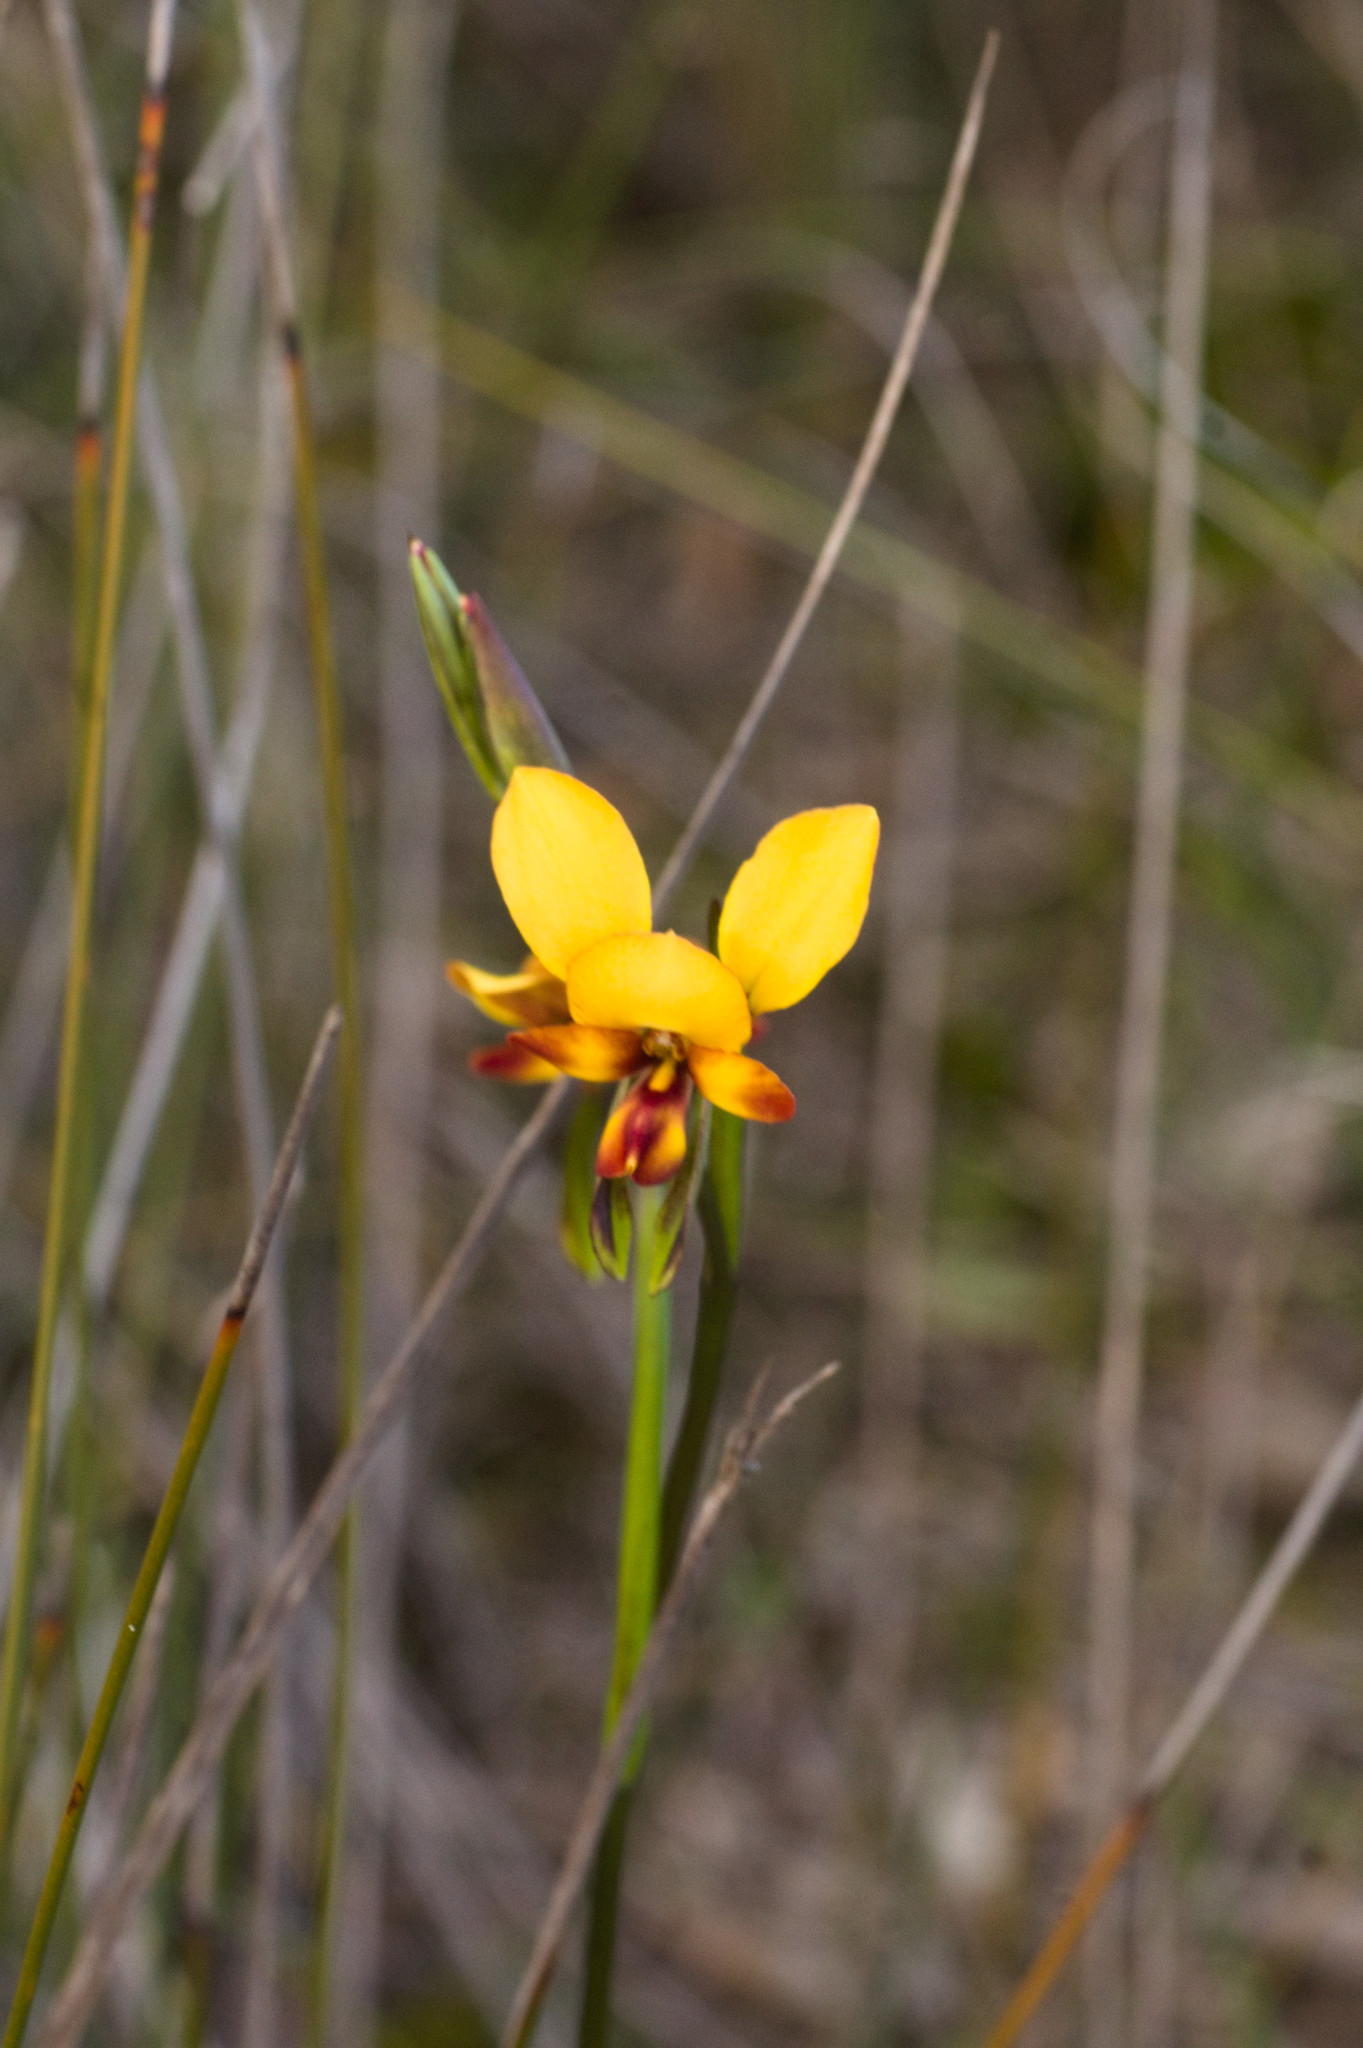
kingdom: Plantae
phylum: Tracheophyta
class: Liliopsida
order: Asparagales
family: Orchidaceae
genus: Diuris
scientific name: Diuris littoralis
